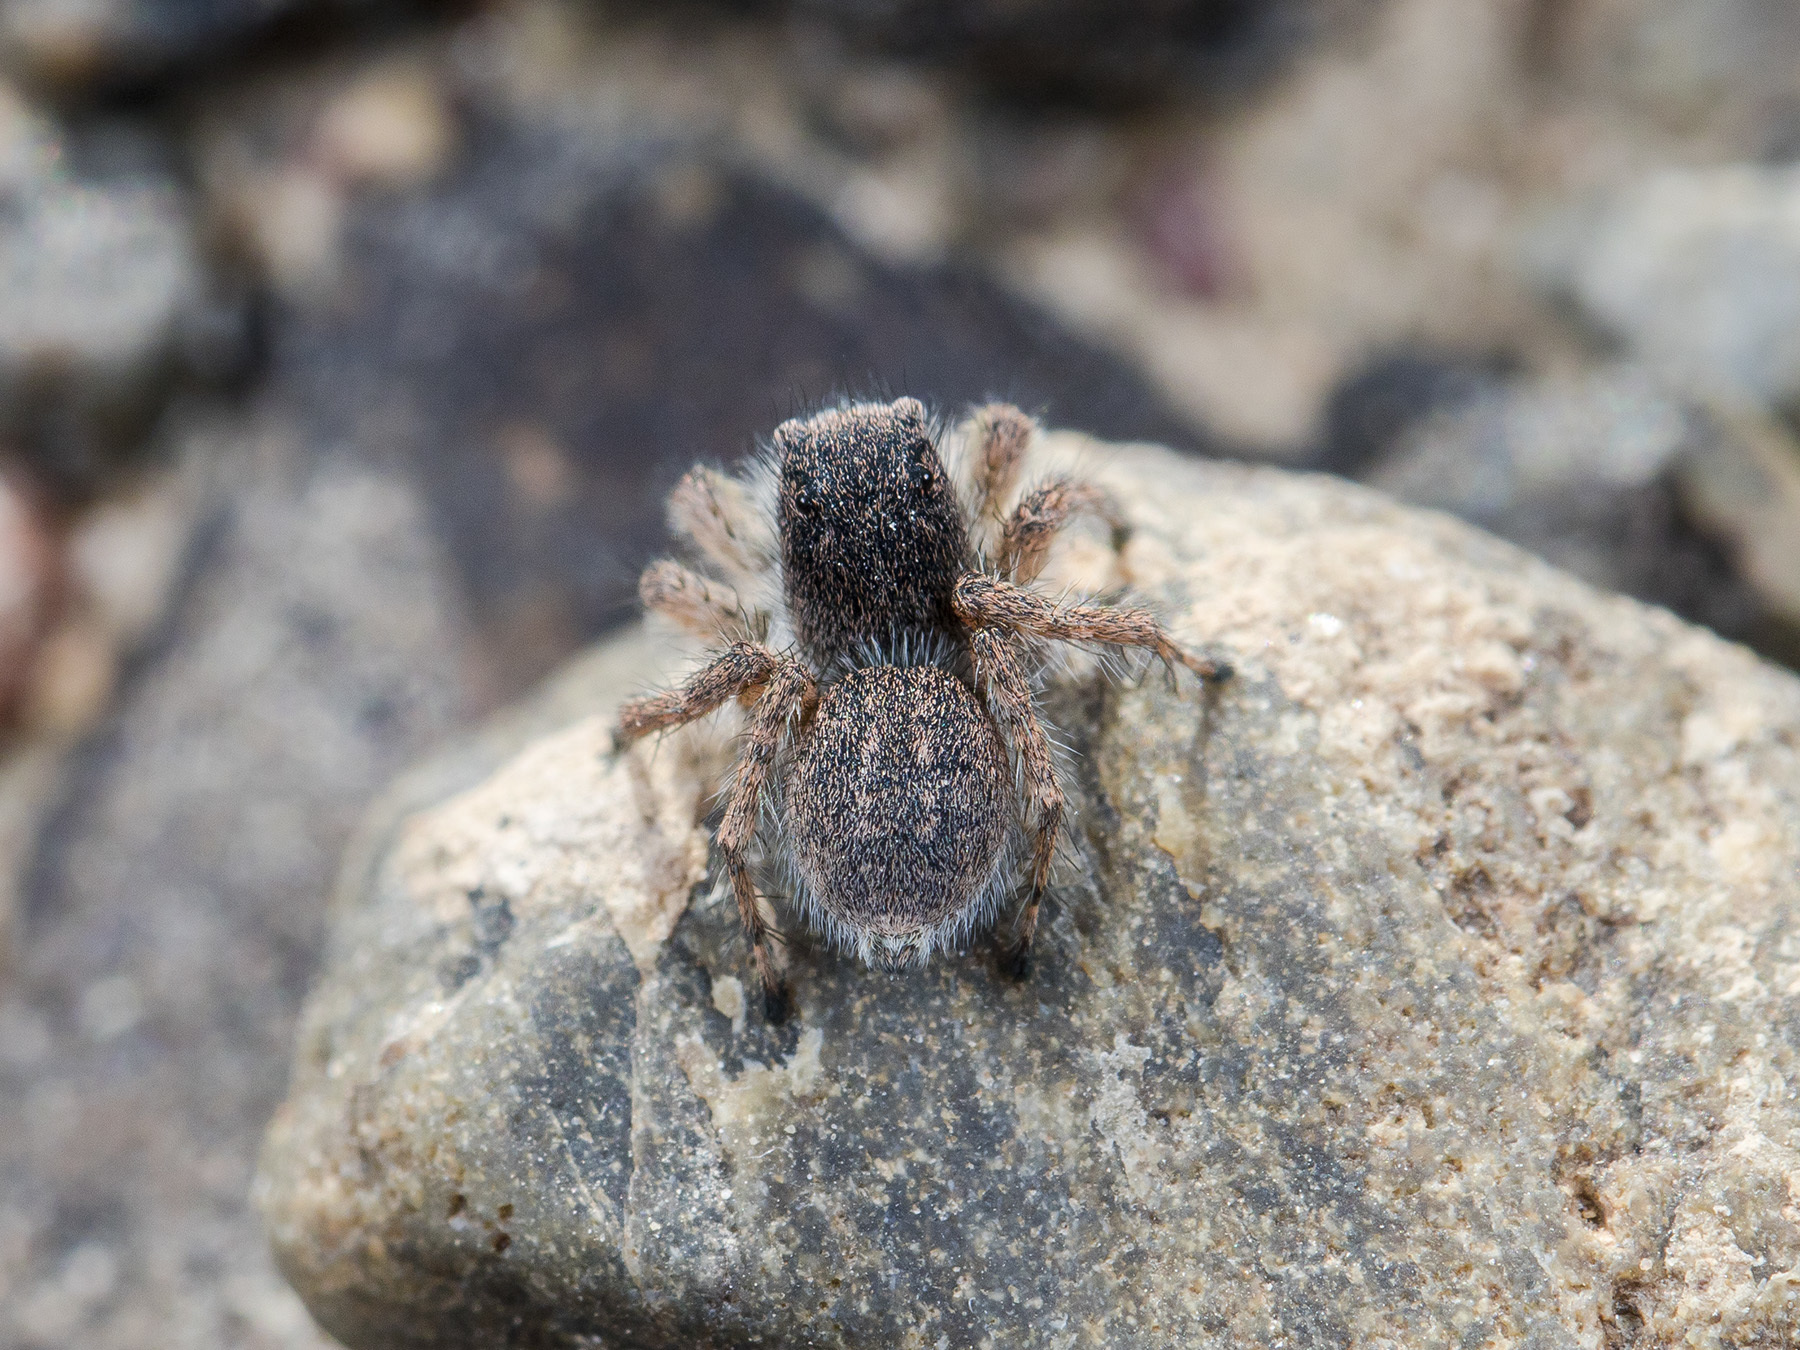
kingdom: Animalia
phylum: Arthropoda
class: Arachnida
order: Araneae
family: Salticidae
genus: Aelurillus
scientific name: Aelurillus dubatolovi
